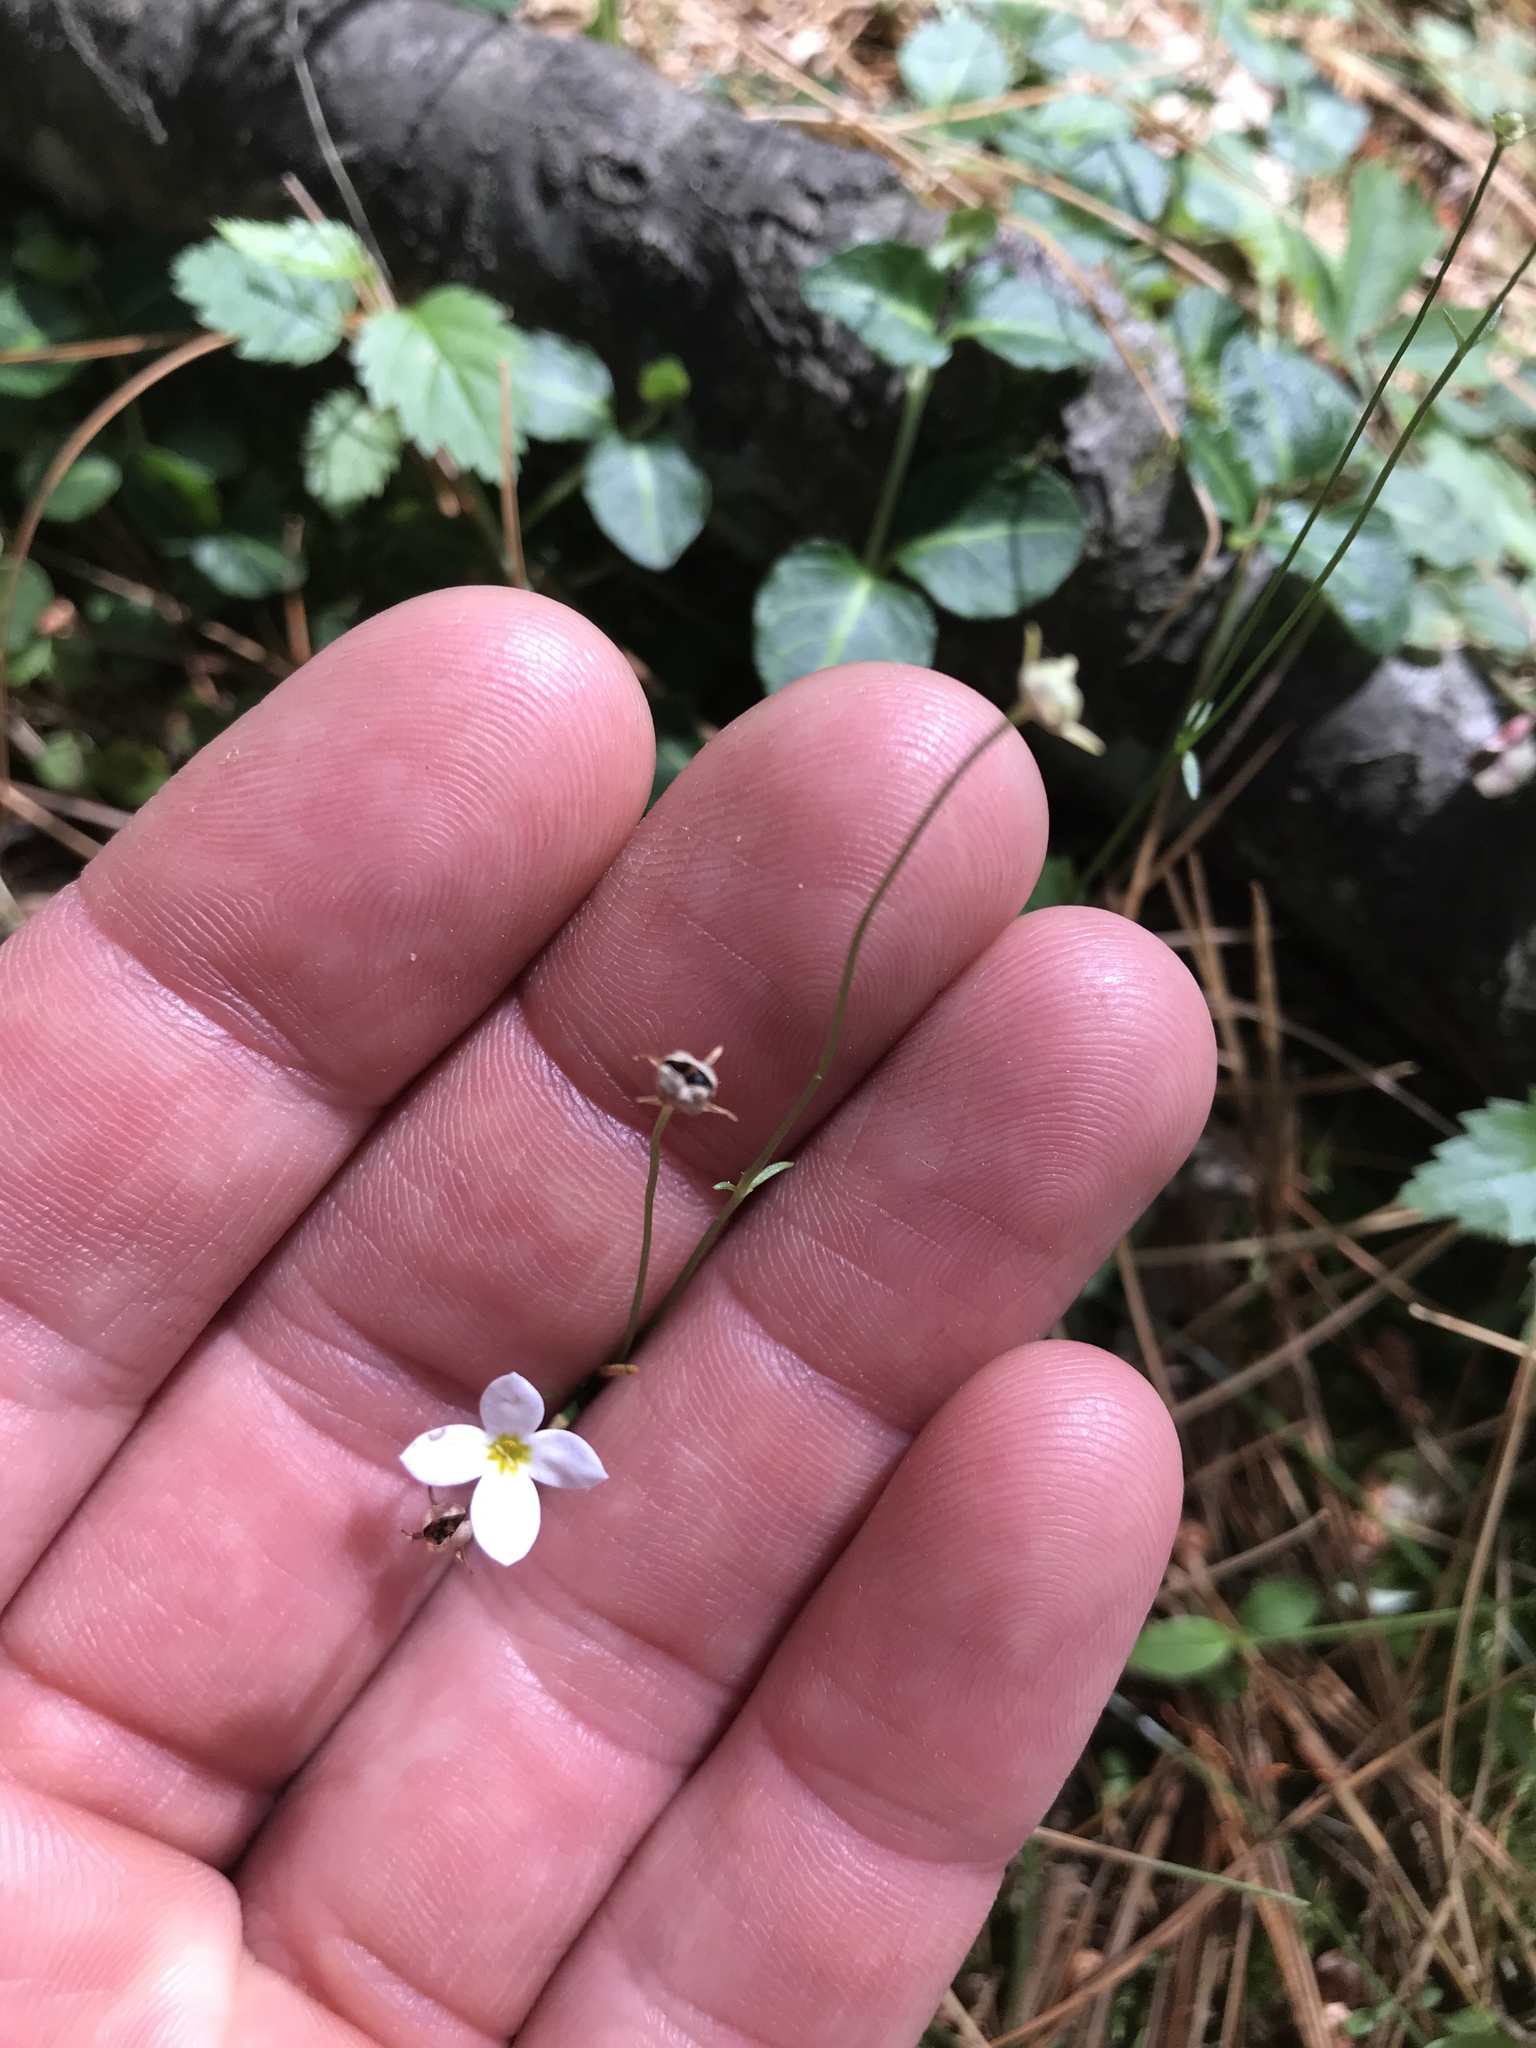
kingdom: Plantae
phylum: Tracheophyta
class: Magnoliopsida
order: Gentianales
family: Rubiaceae
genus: Houstonia
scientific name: Houstonia caerulea
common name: Bluets
